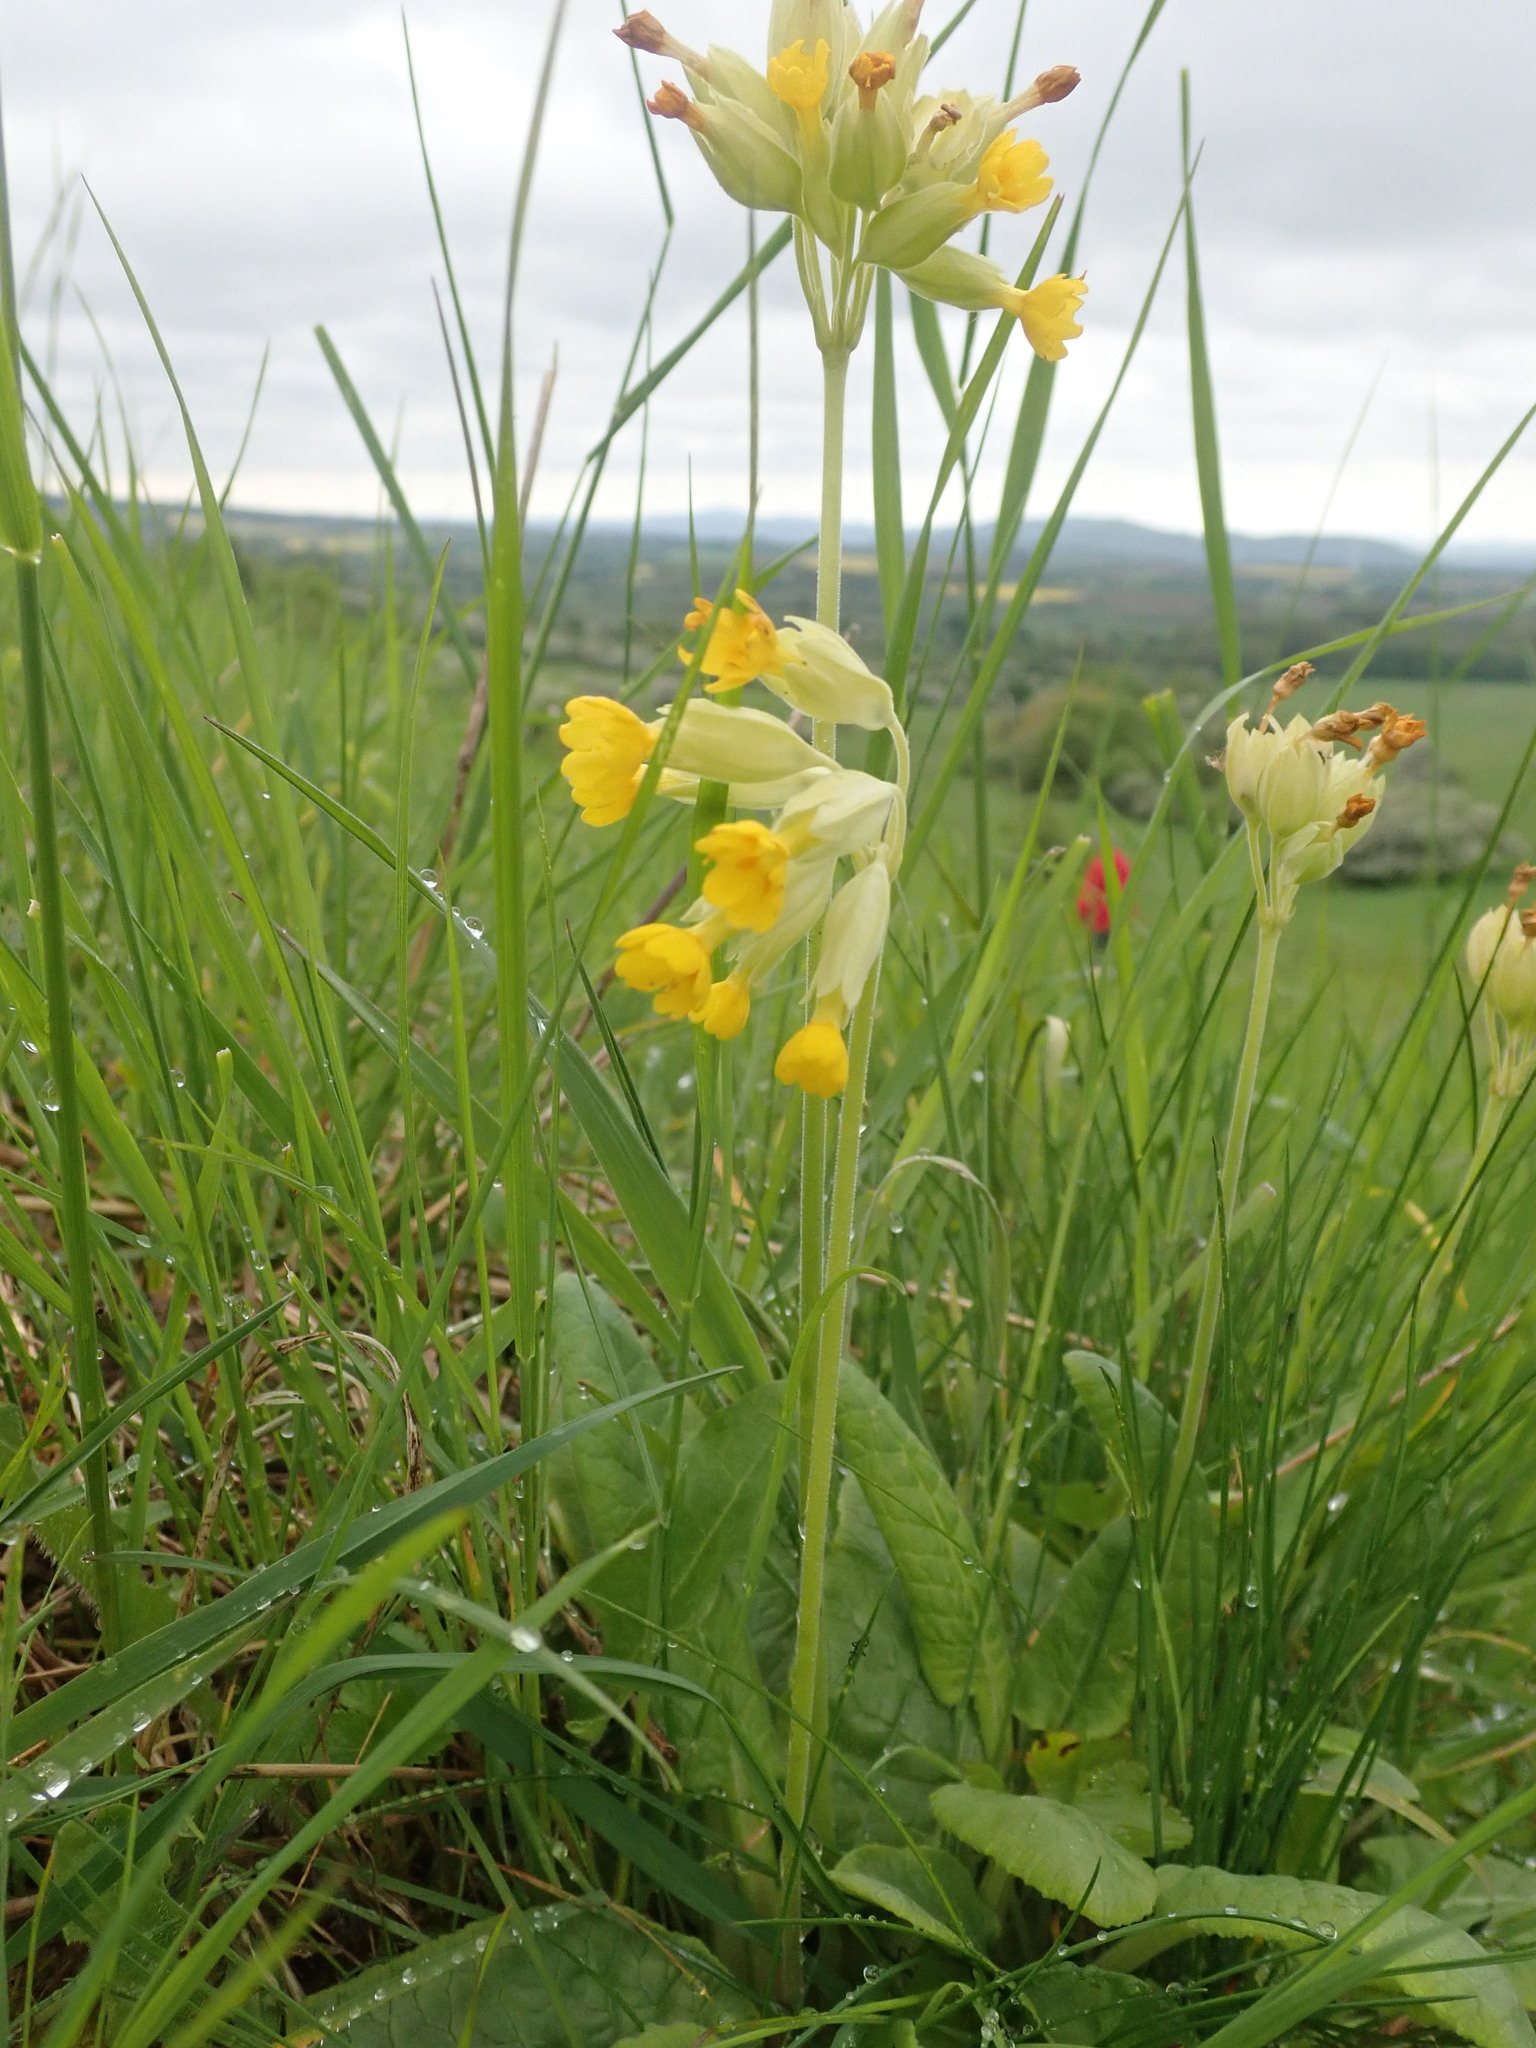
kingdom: Plantae
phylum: Tracheophyta
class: Magnoliopsida
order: Ericales
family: Primulaceae
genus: Primula
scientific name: Primula veris
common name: Cowslip
